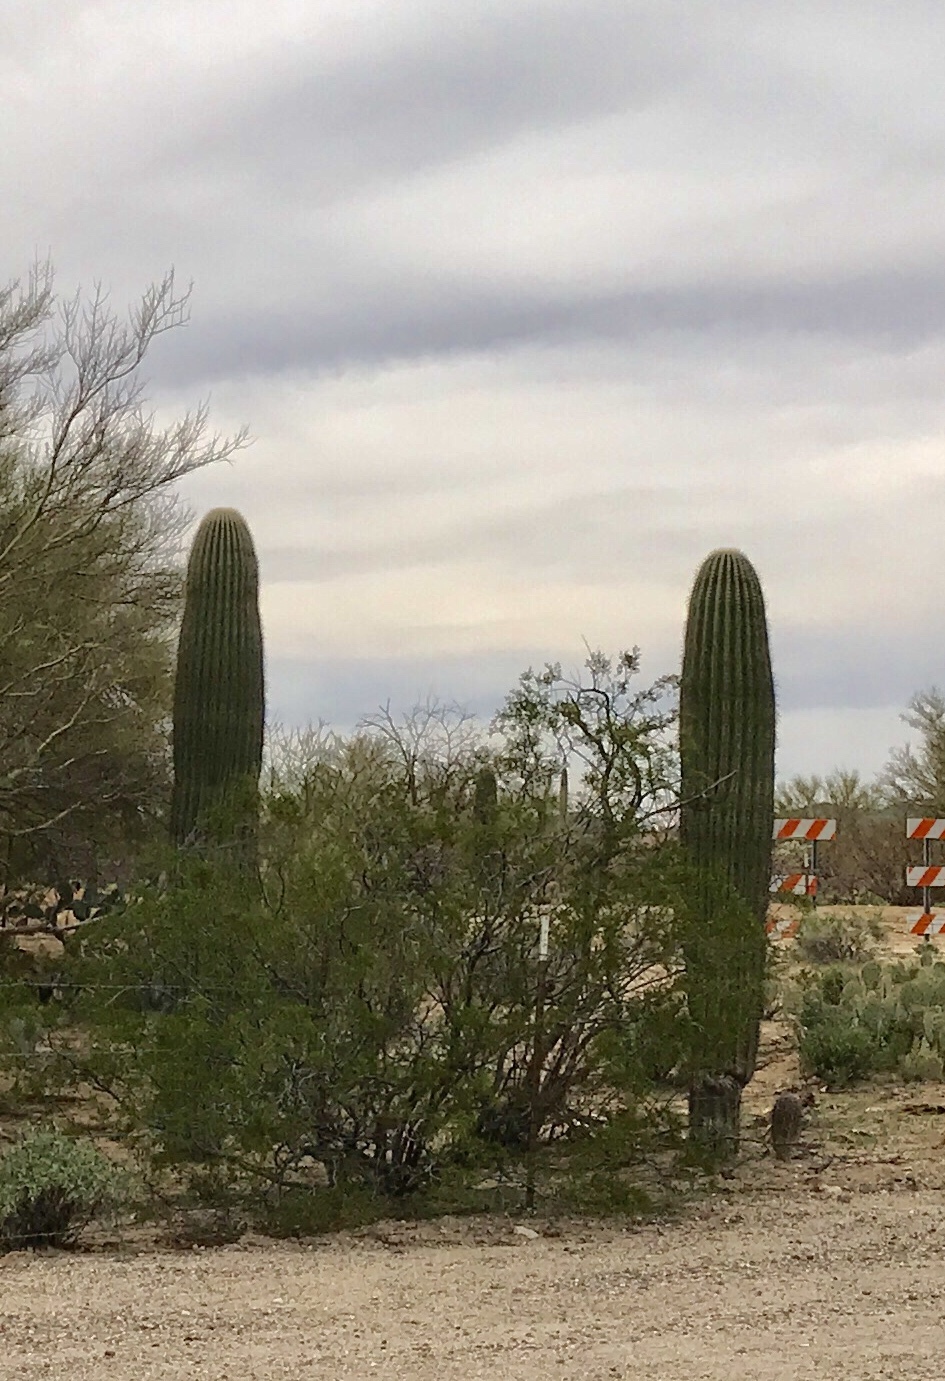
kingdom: Plantae
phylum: Tracheophyta
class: Magnoliopsida
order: Caryophyllales
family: Cactaceae
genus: Carnegiea
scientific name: Carnegiea gigantea
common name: Saguaro
